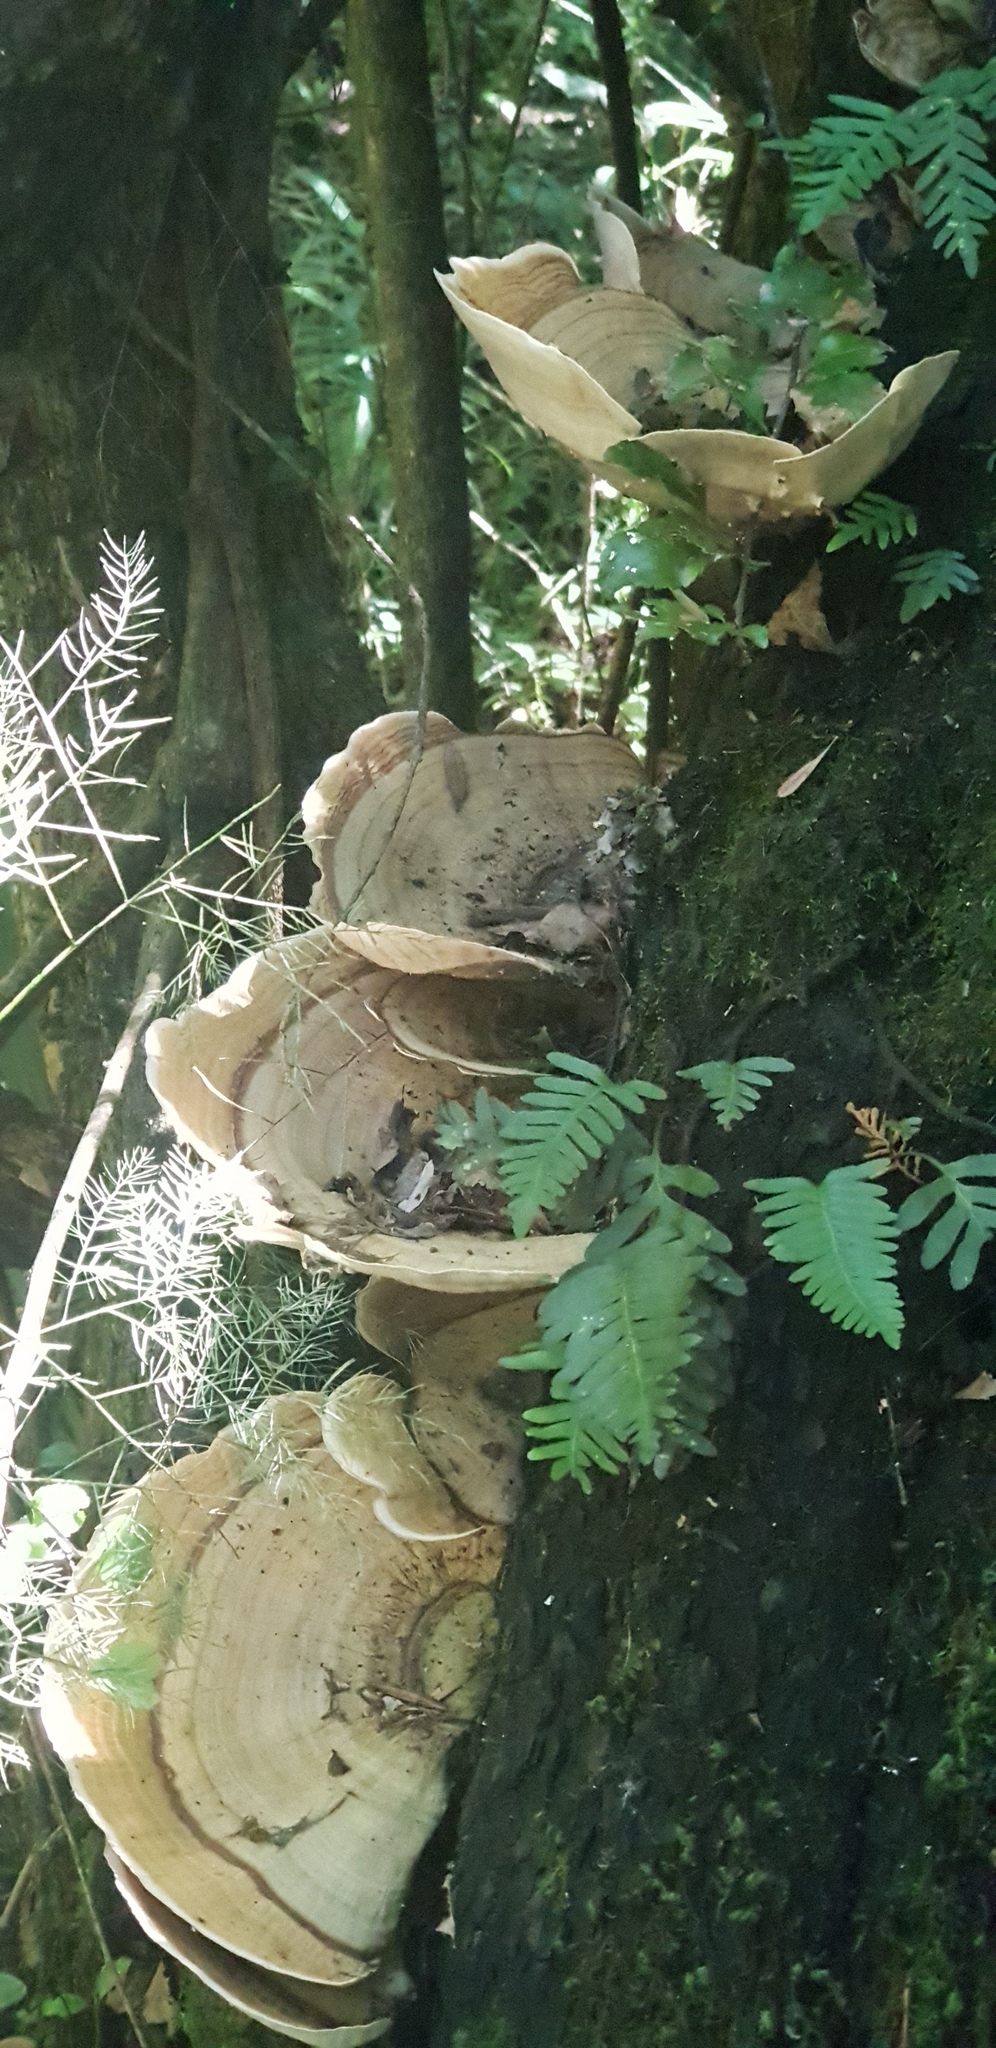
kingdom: Fungi
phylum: Basidiomycota
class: Agaricomycetes
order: Russulales
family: Stereaceae
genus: Stereum
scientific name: Stereum versicolor
